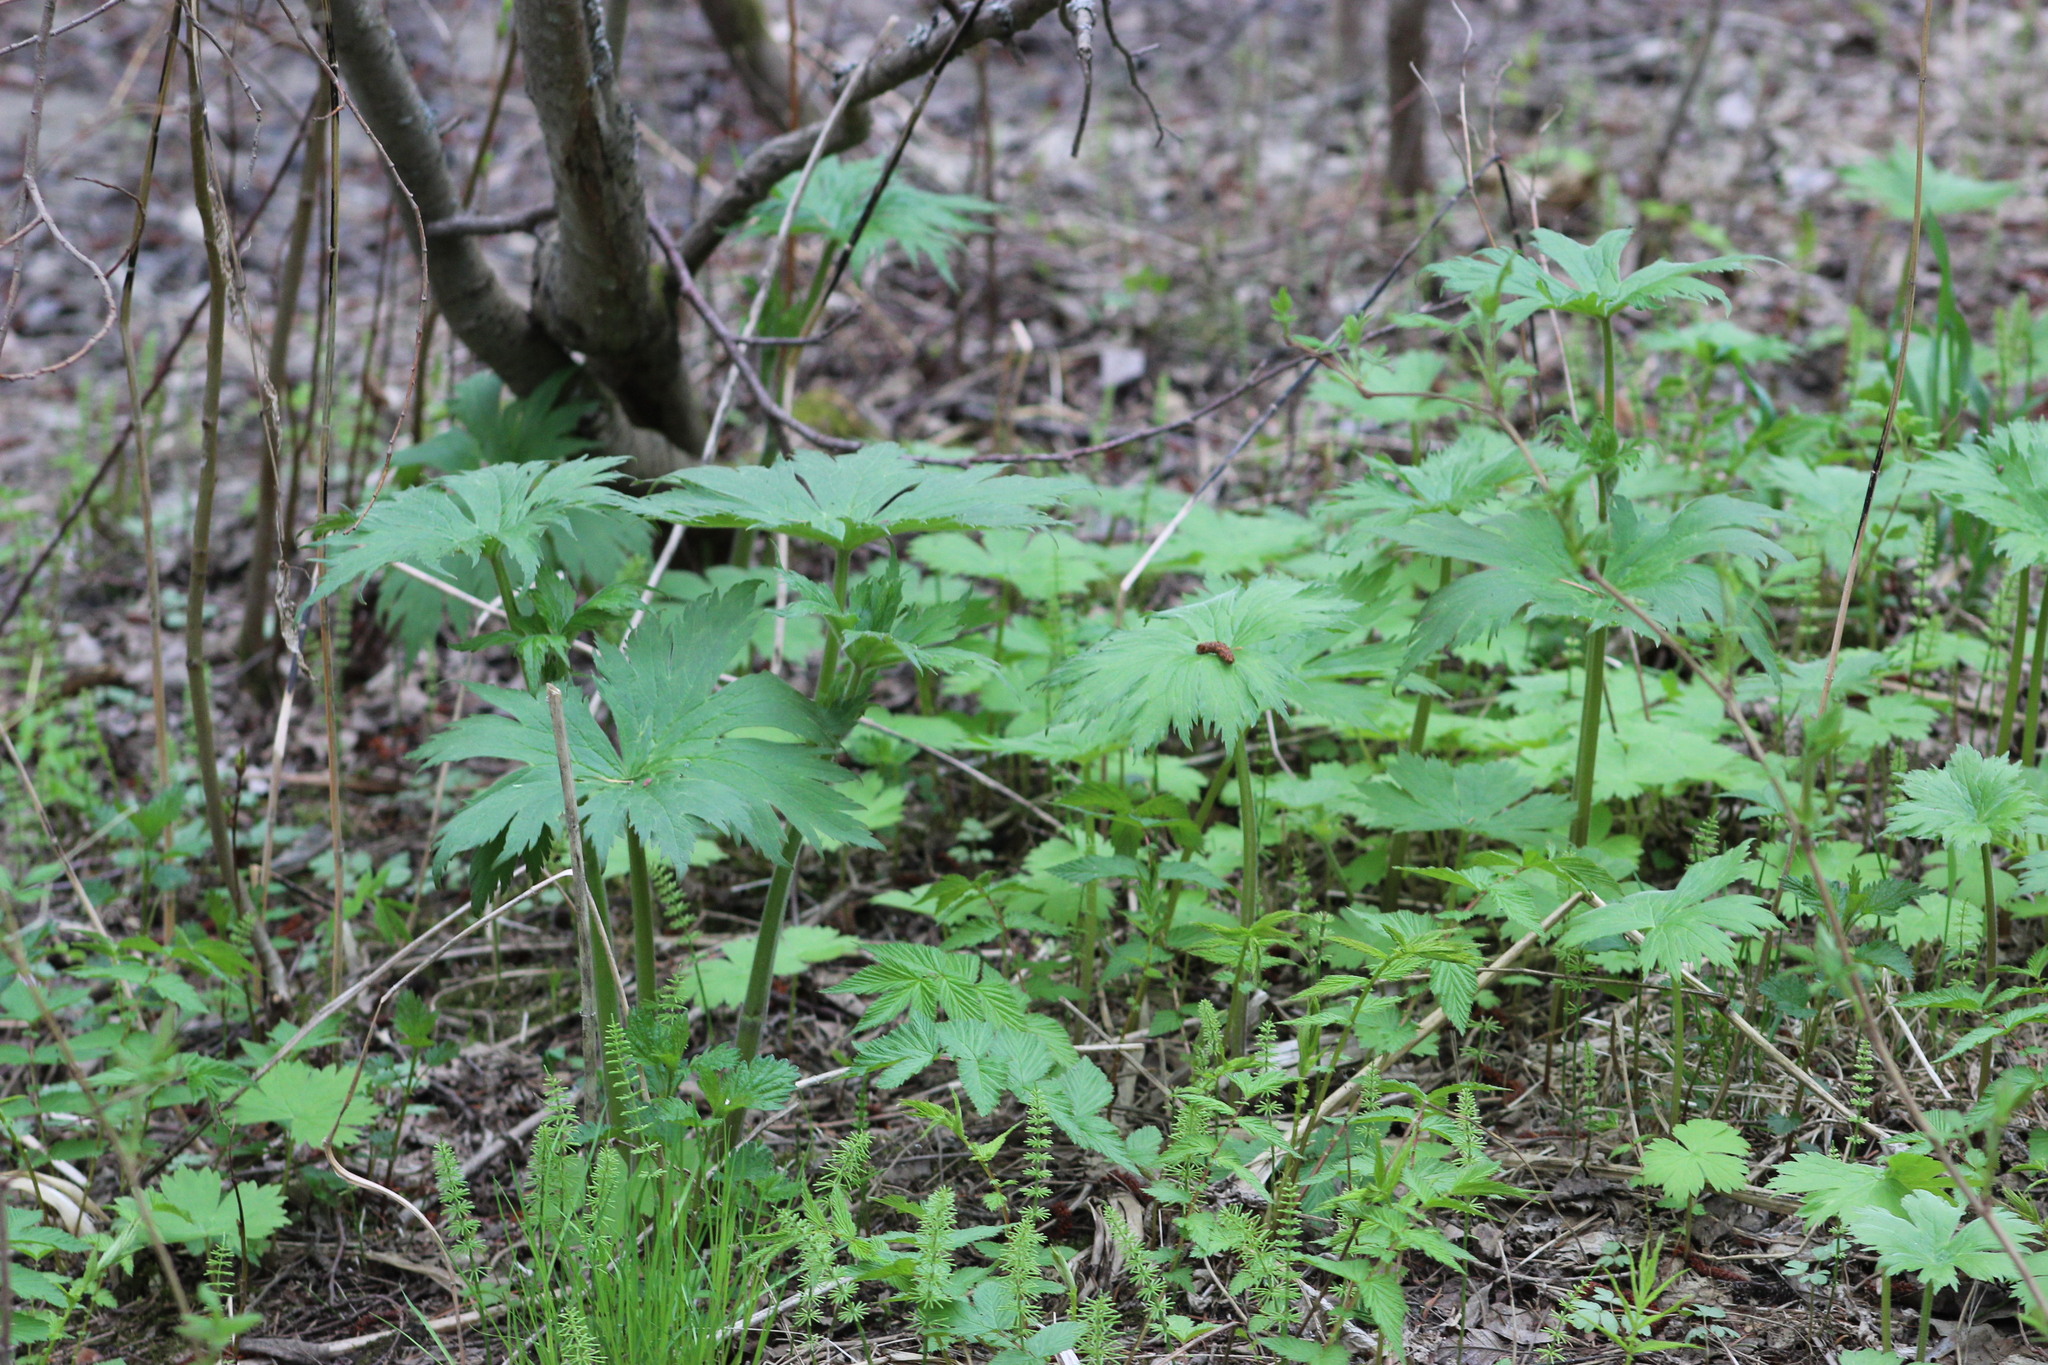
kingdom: Plantae
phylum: Tracheophyta
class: Magnoliopsida
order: Ranunculales
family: Ranunculaceae
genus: Aconitum
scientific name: Aconitum septentrionale
